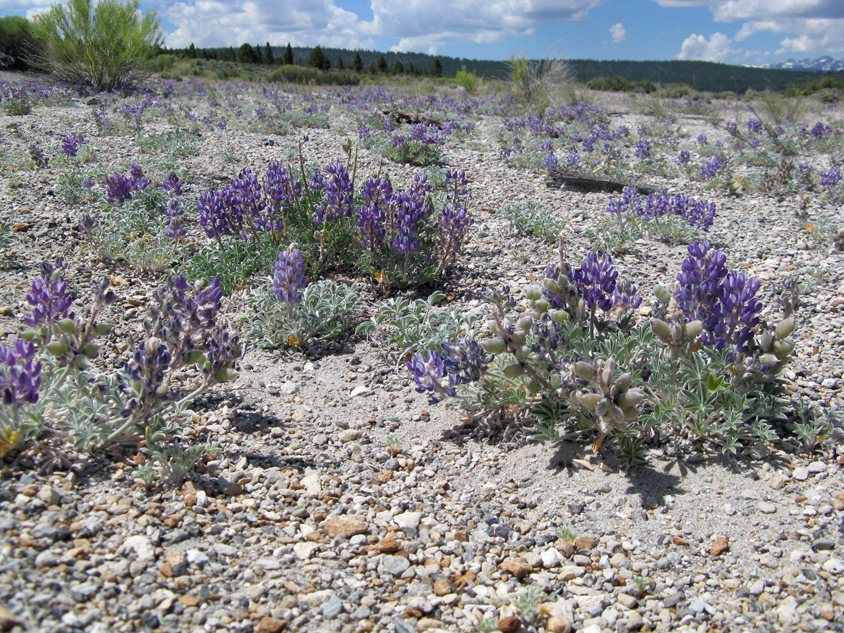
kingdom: Plantae
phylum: Tracheophyta
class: Magnoliopsida
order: Fabales
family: Fabaceae
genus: Lupinus
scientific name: Lupinus duranii
